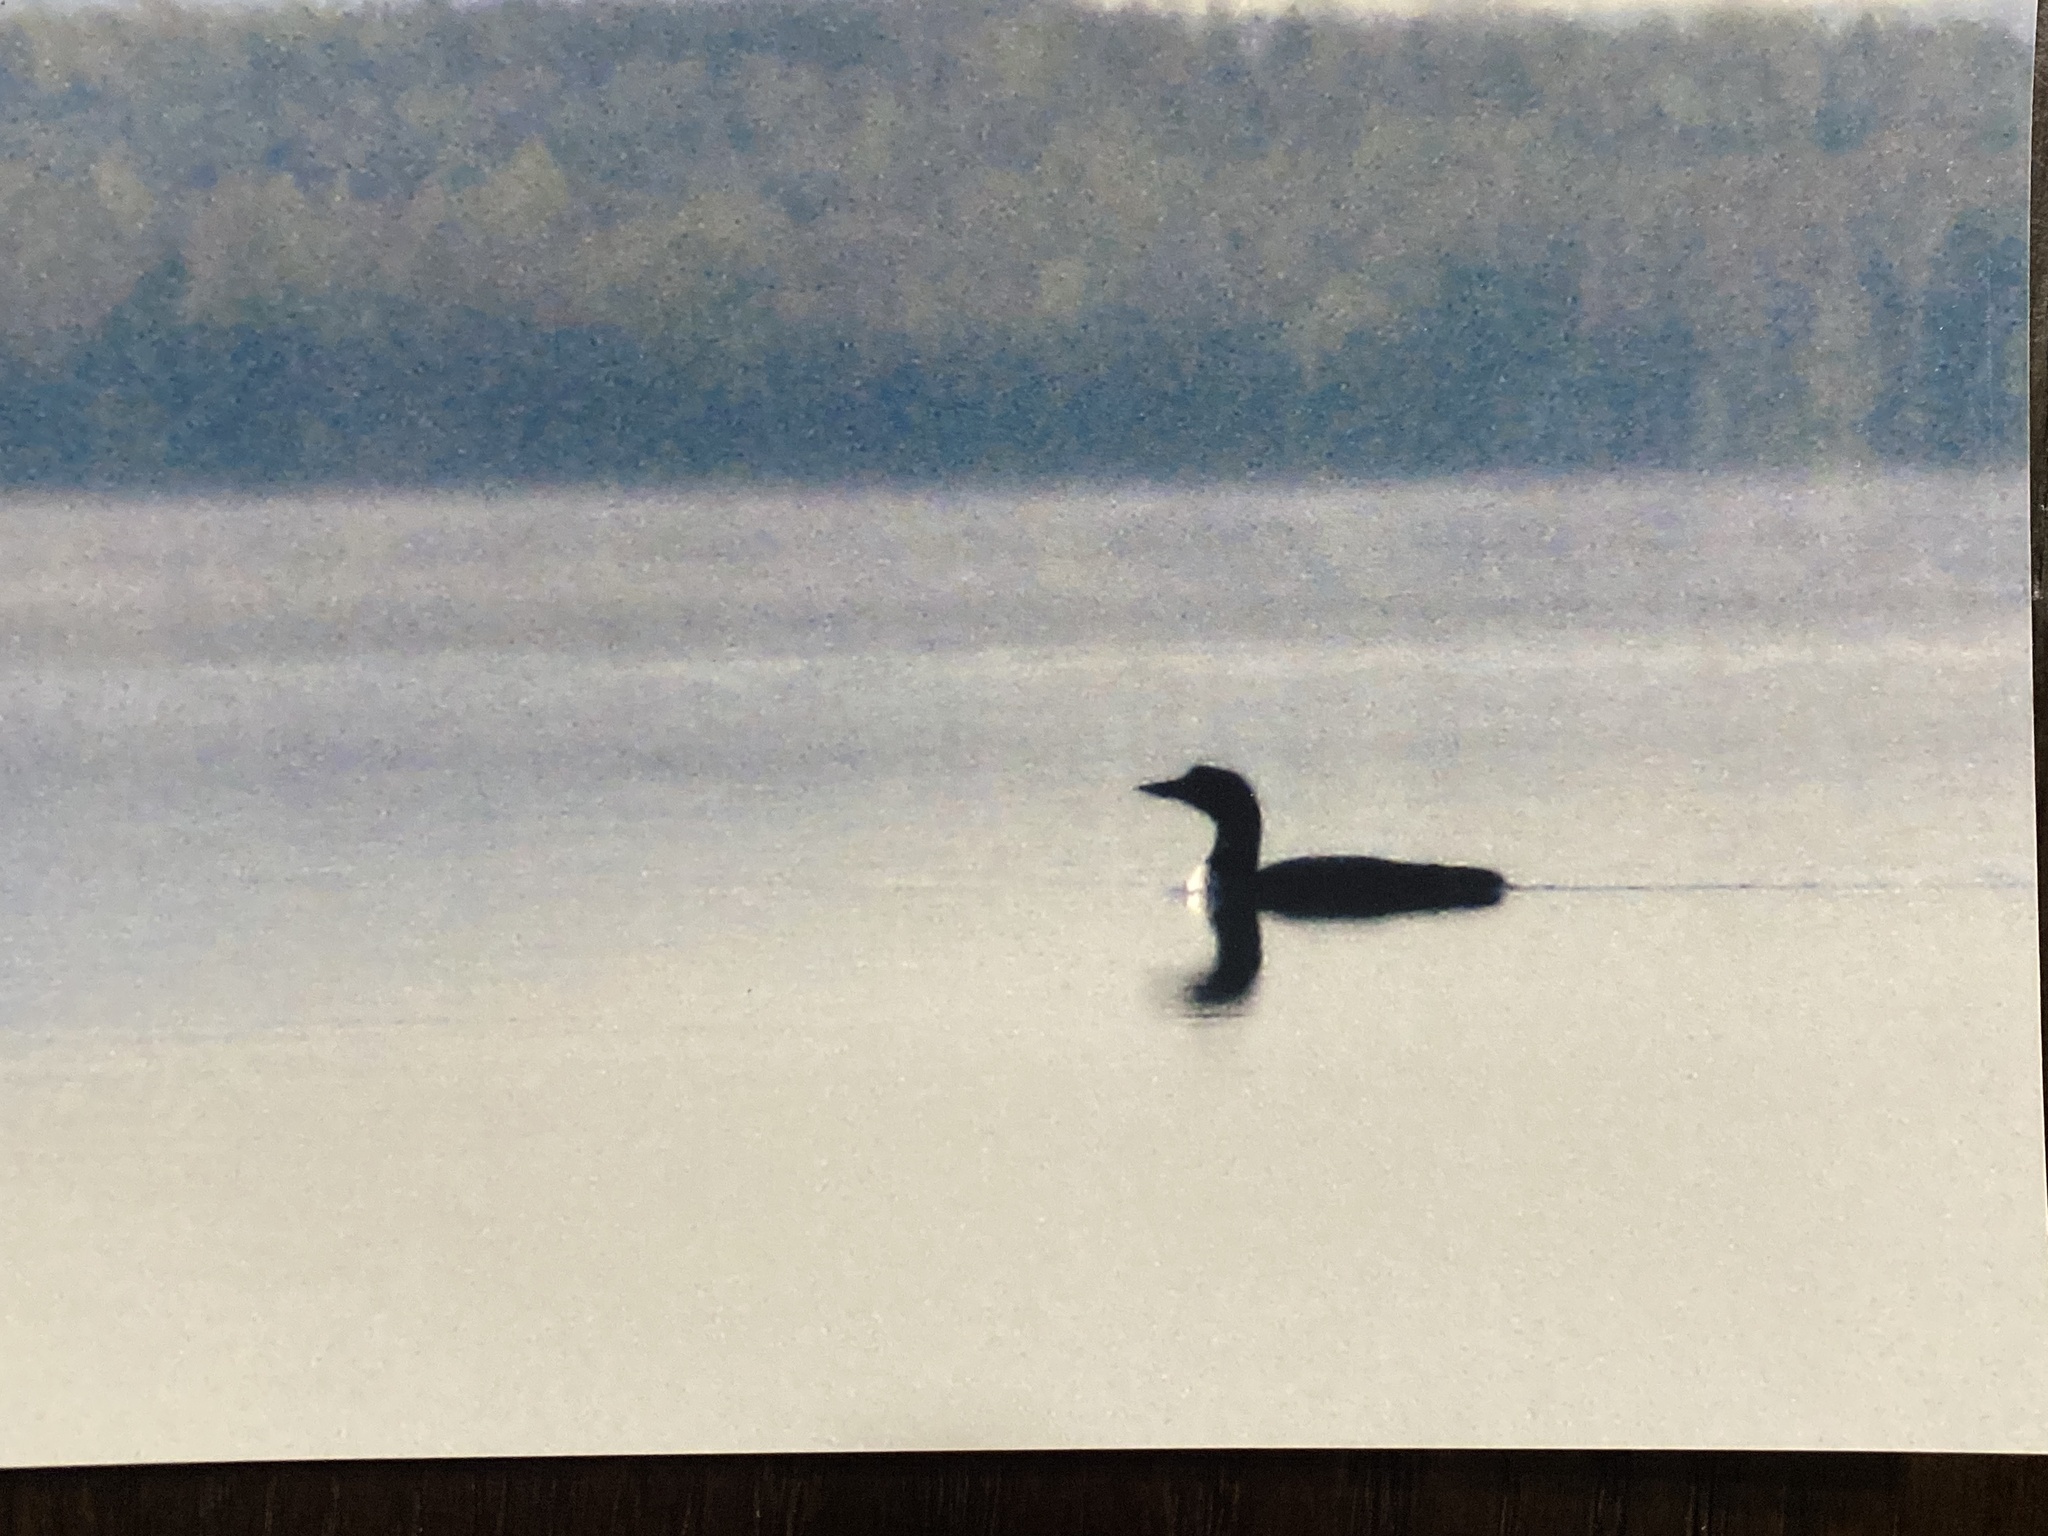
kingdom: Animalia
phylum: Chordata
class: Aves
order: Gaviiformes
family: Gaviidae
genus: Gavia
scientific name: Gavia immer
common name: Common loon
